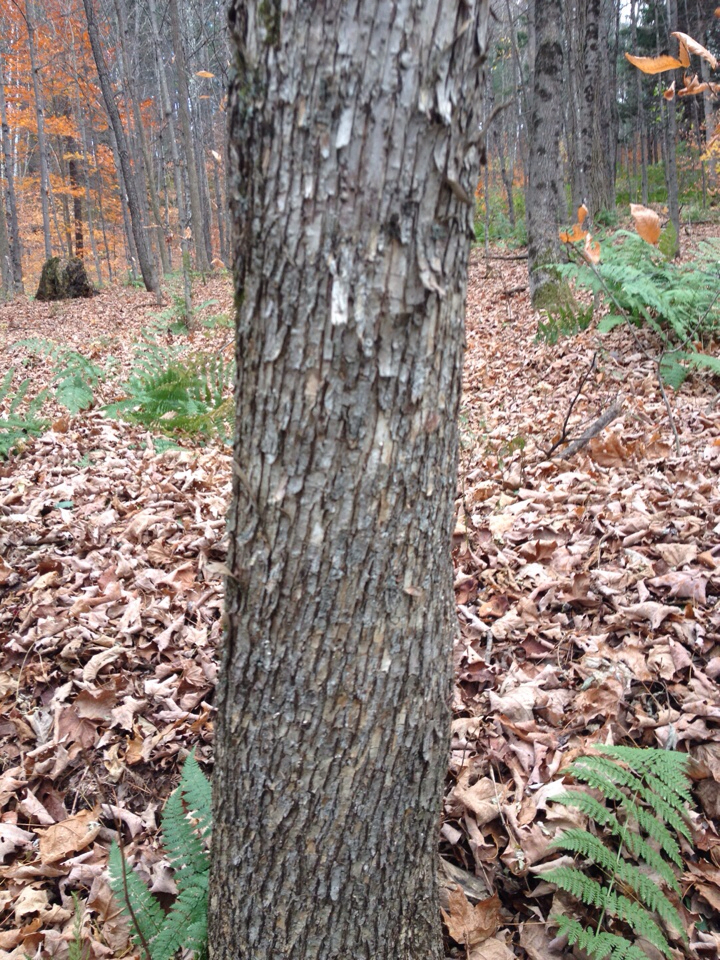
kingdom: Plantae
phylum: Tracheophyta
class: Magnoliopsida
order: Fagales
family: Betulaceae
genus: Ostrya
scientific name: Ostrya virginiana
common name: Ironwood
